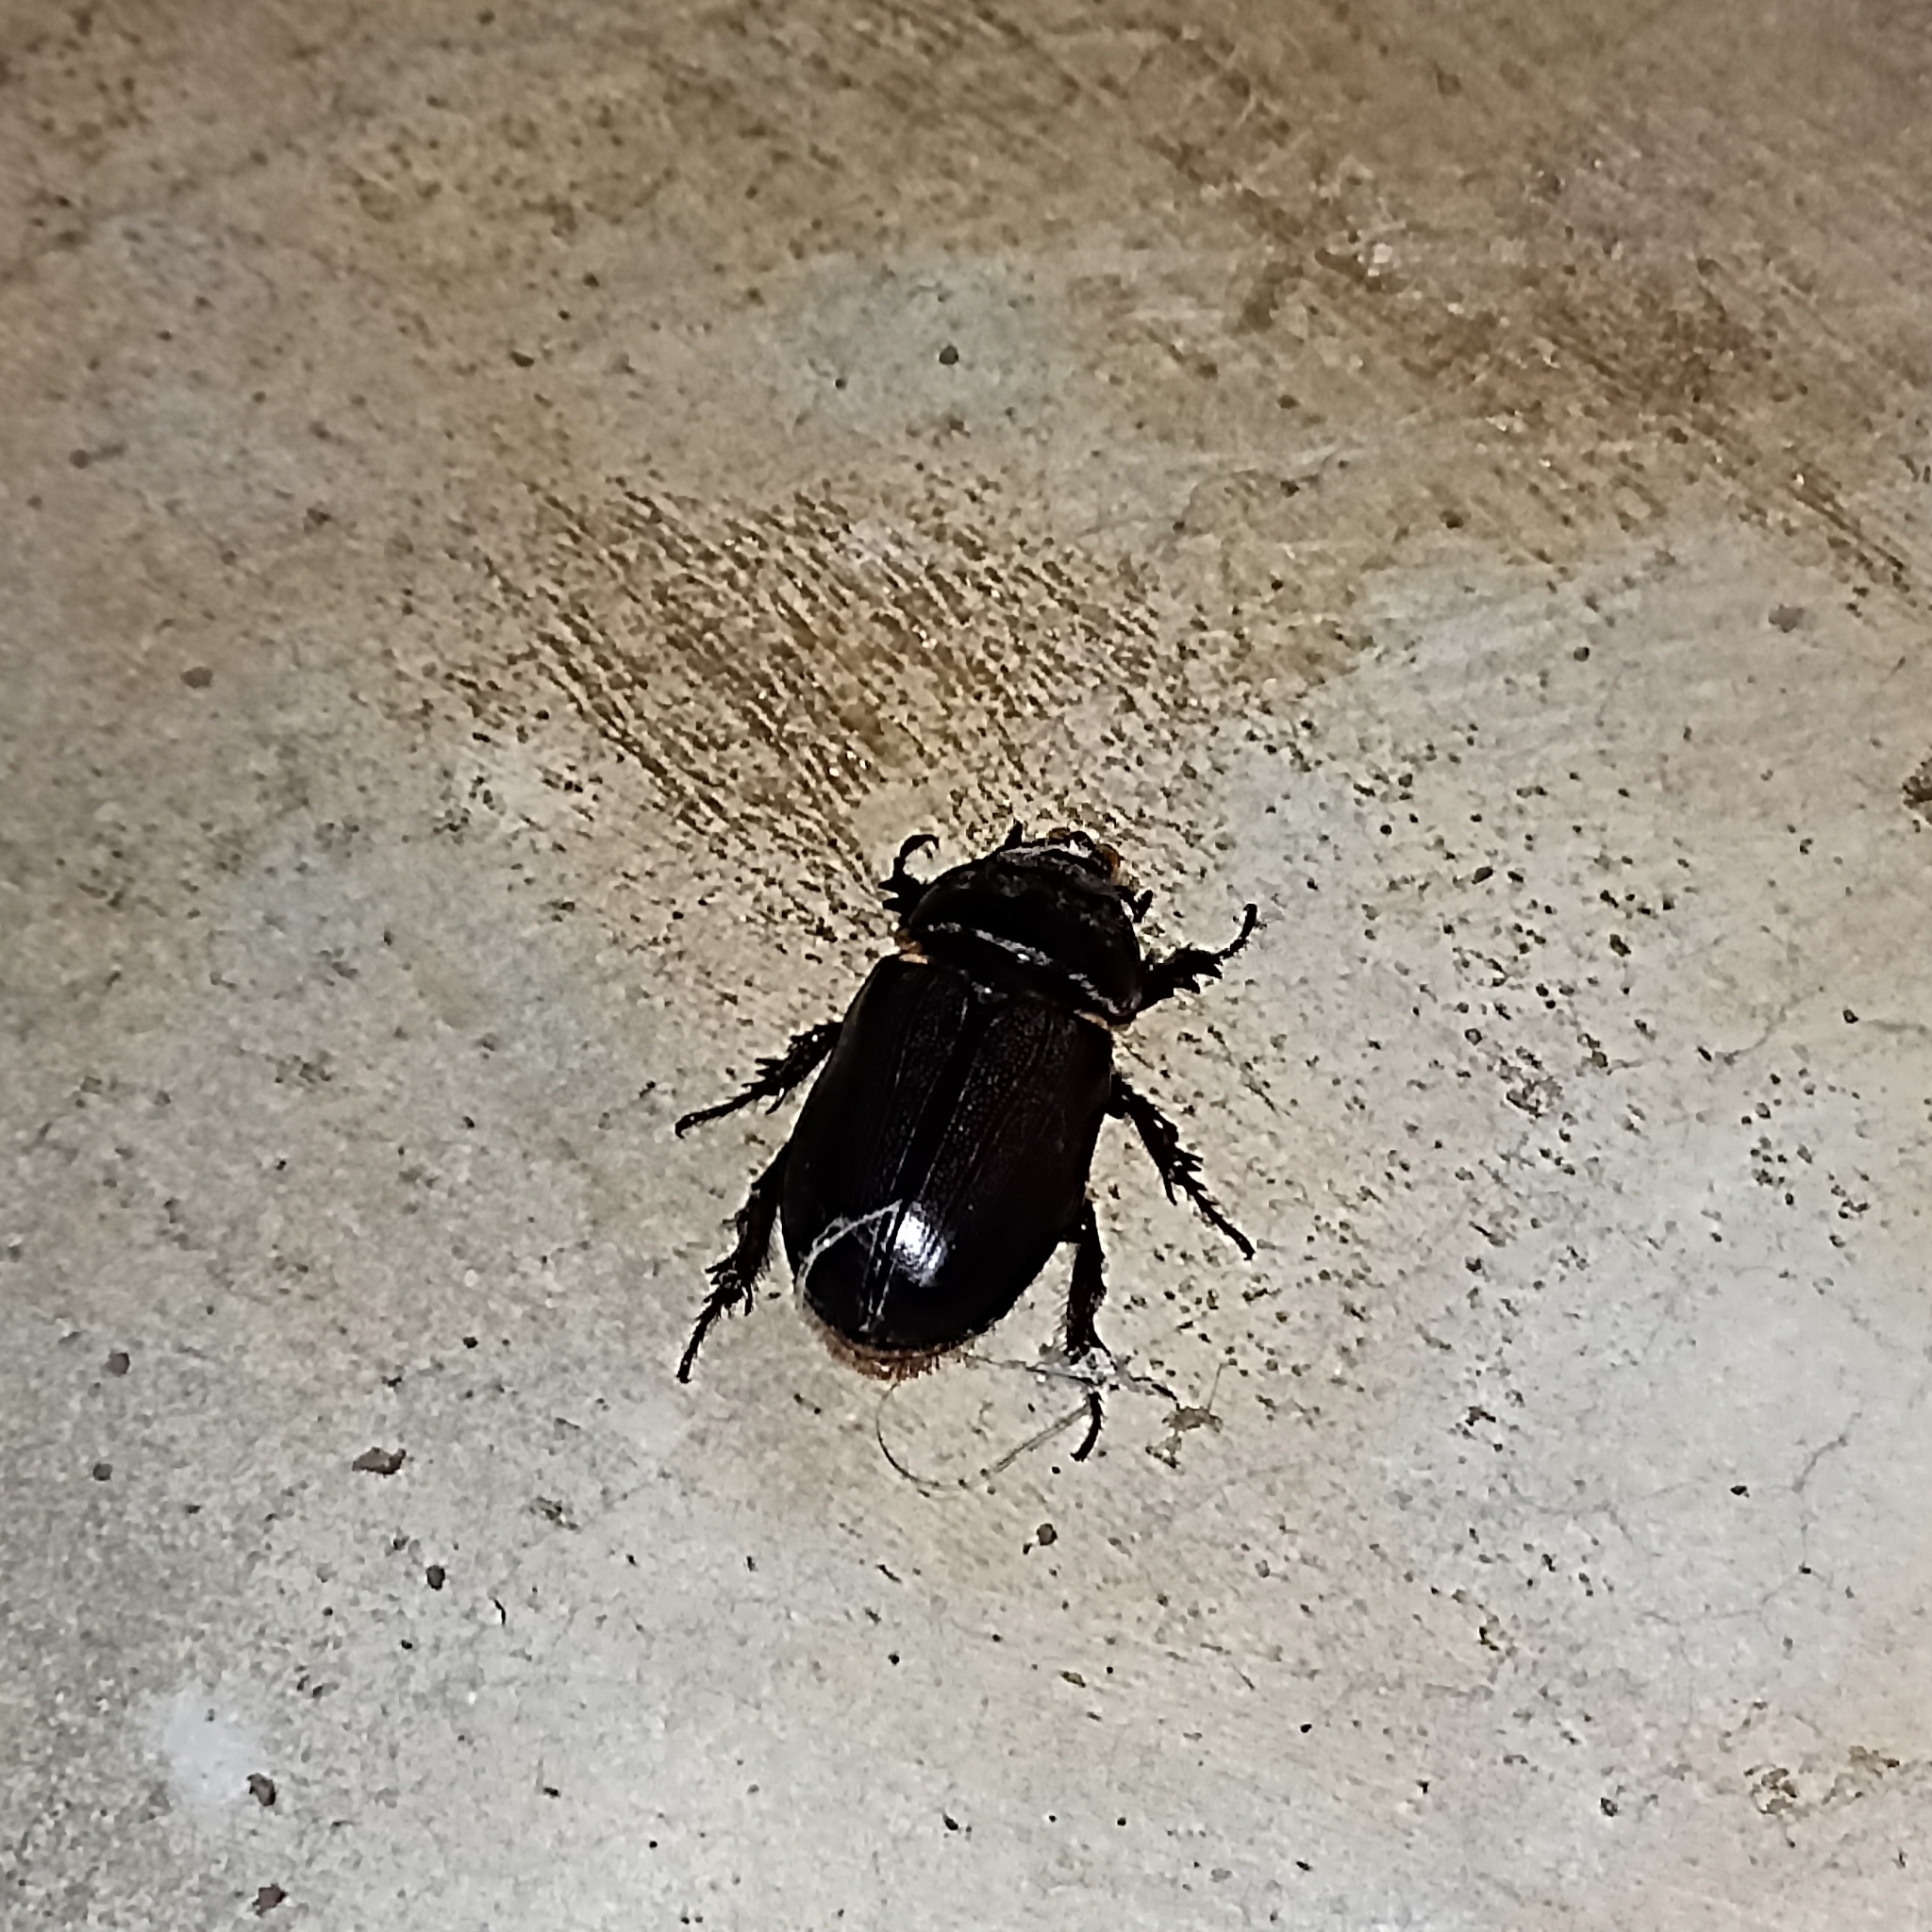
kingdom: Animalia
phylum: Arthropoda
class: Insecta
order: Coleoptera
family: Scarabaeidae
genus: Oryctes
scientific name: Oryctes rhinoceros
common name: Coconut rhinoceros beetle
